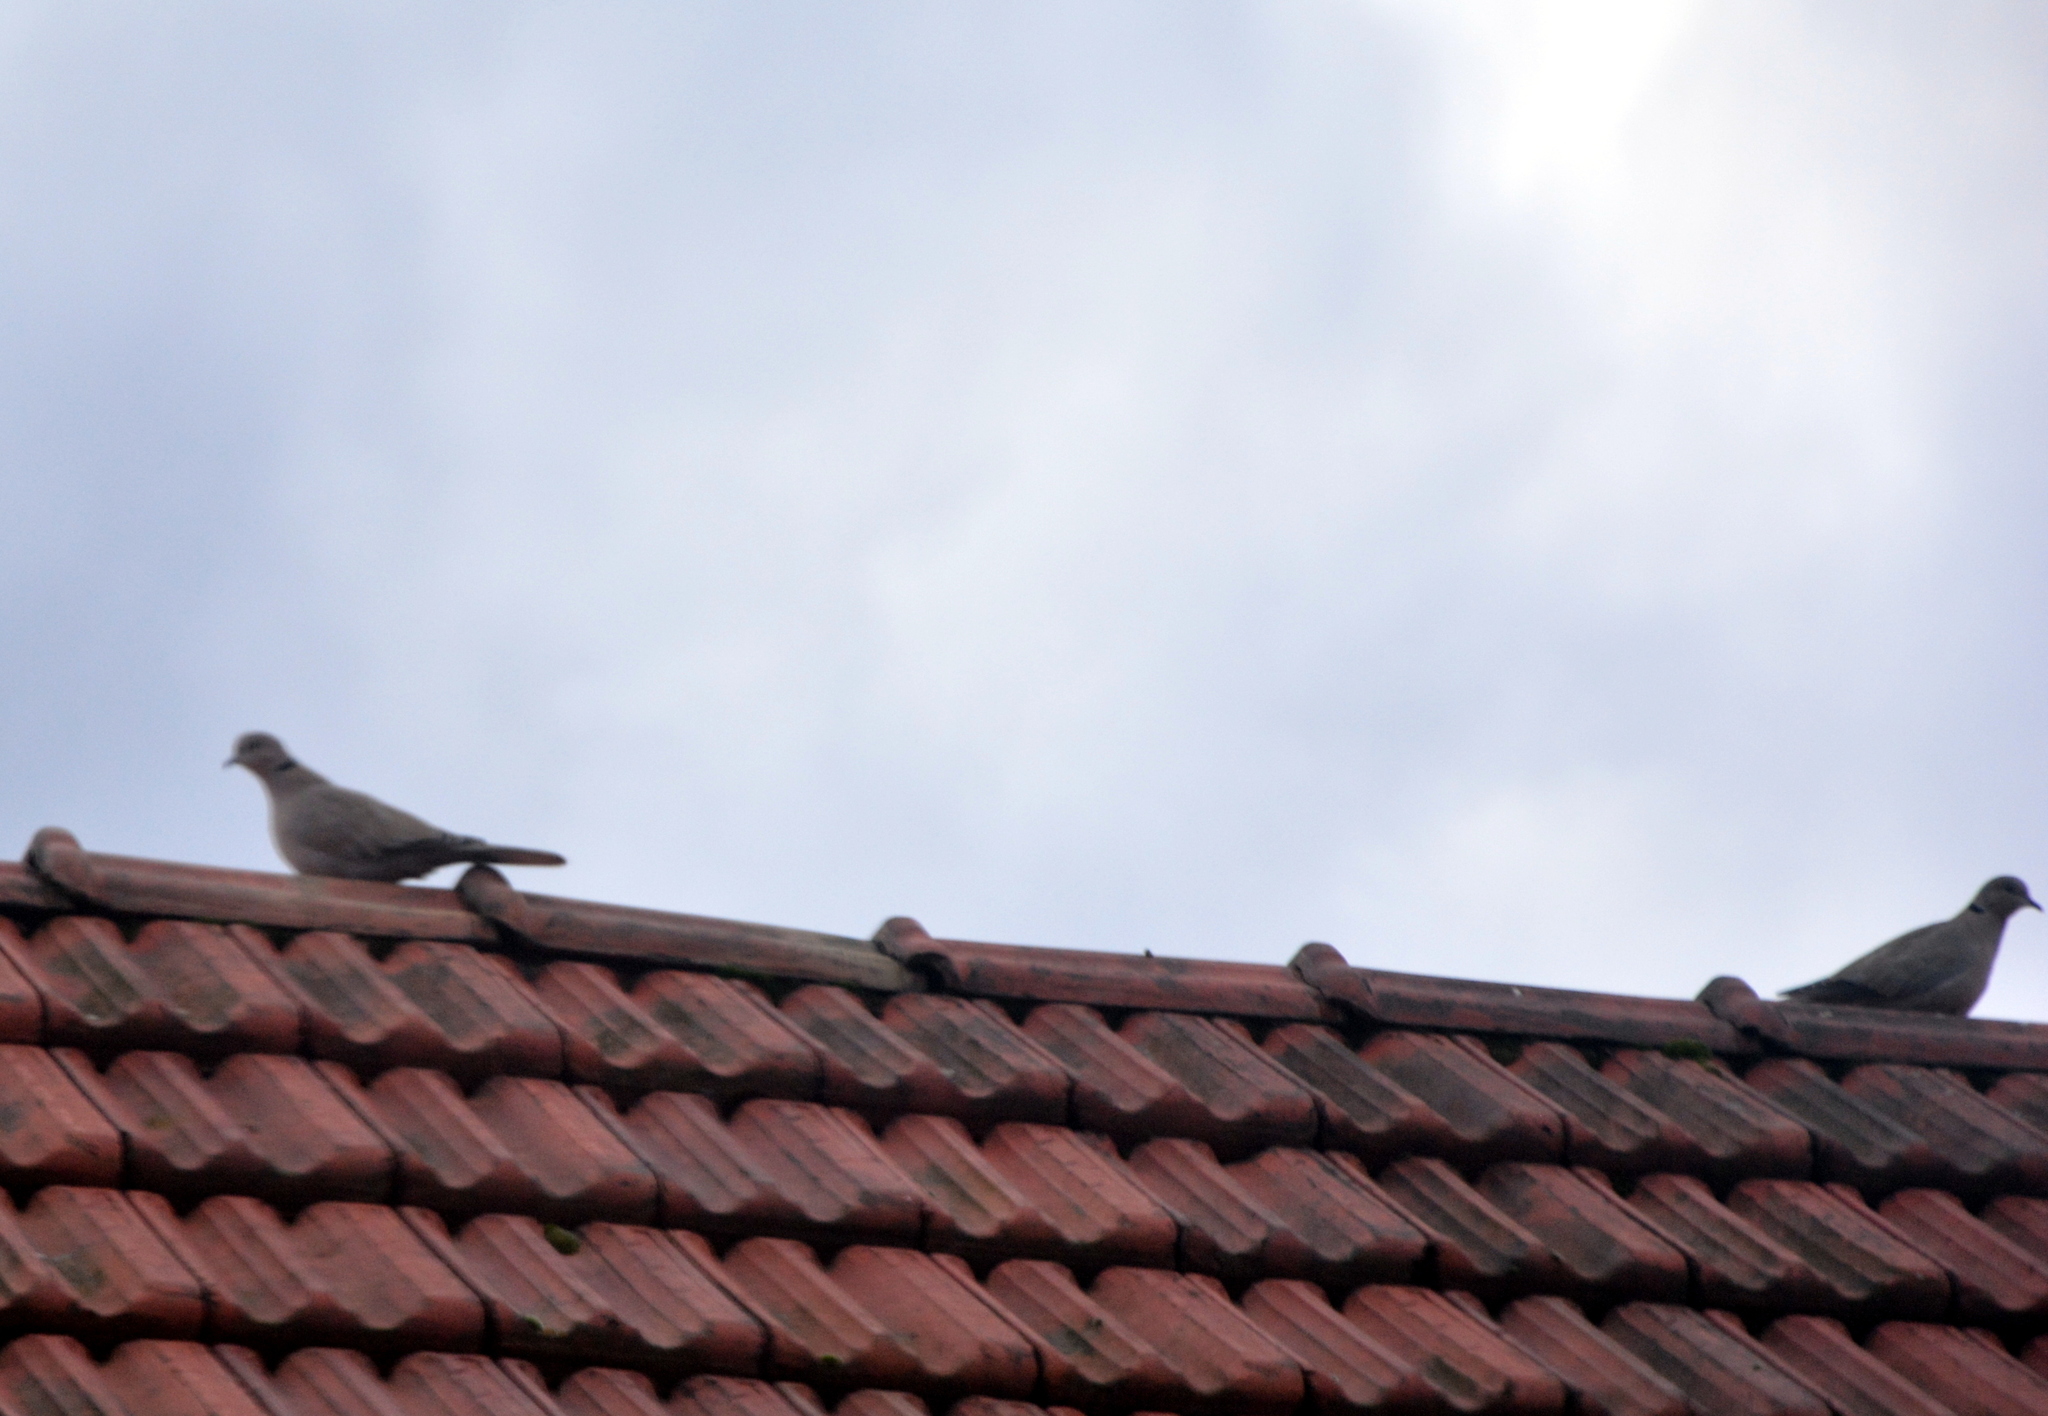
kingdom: Animalia
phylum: Chordata
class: Aves
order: Columbiformes
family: Columbidae
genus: Streptopelia
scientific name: Streptopelia decaocto
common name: Eurasian collared dove
